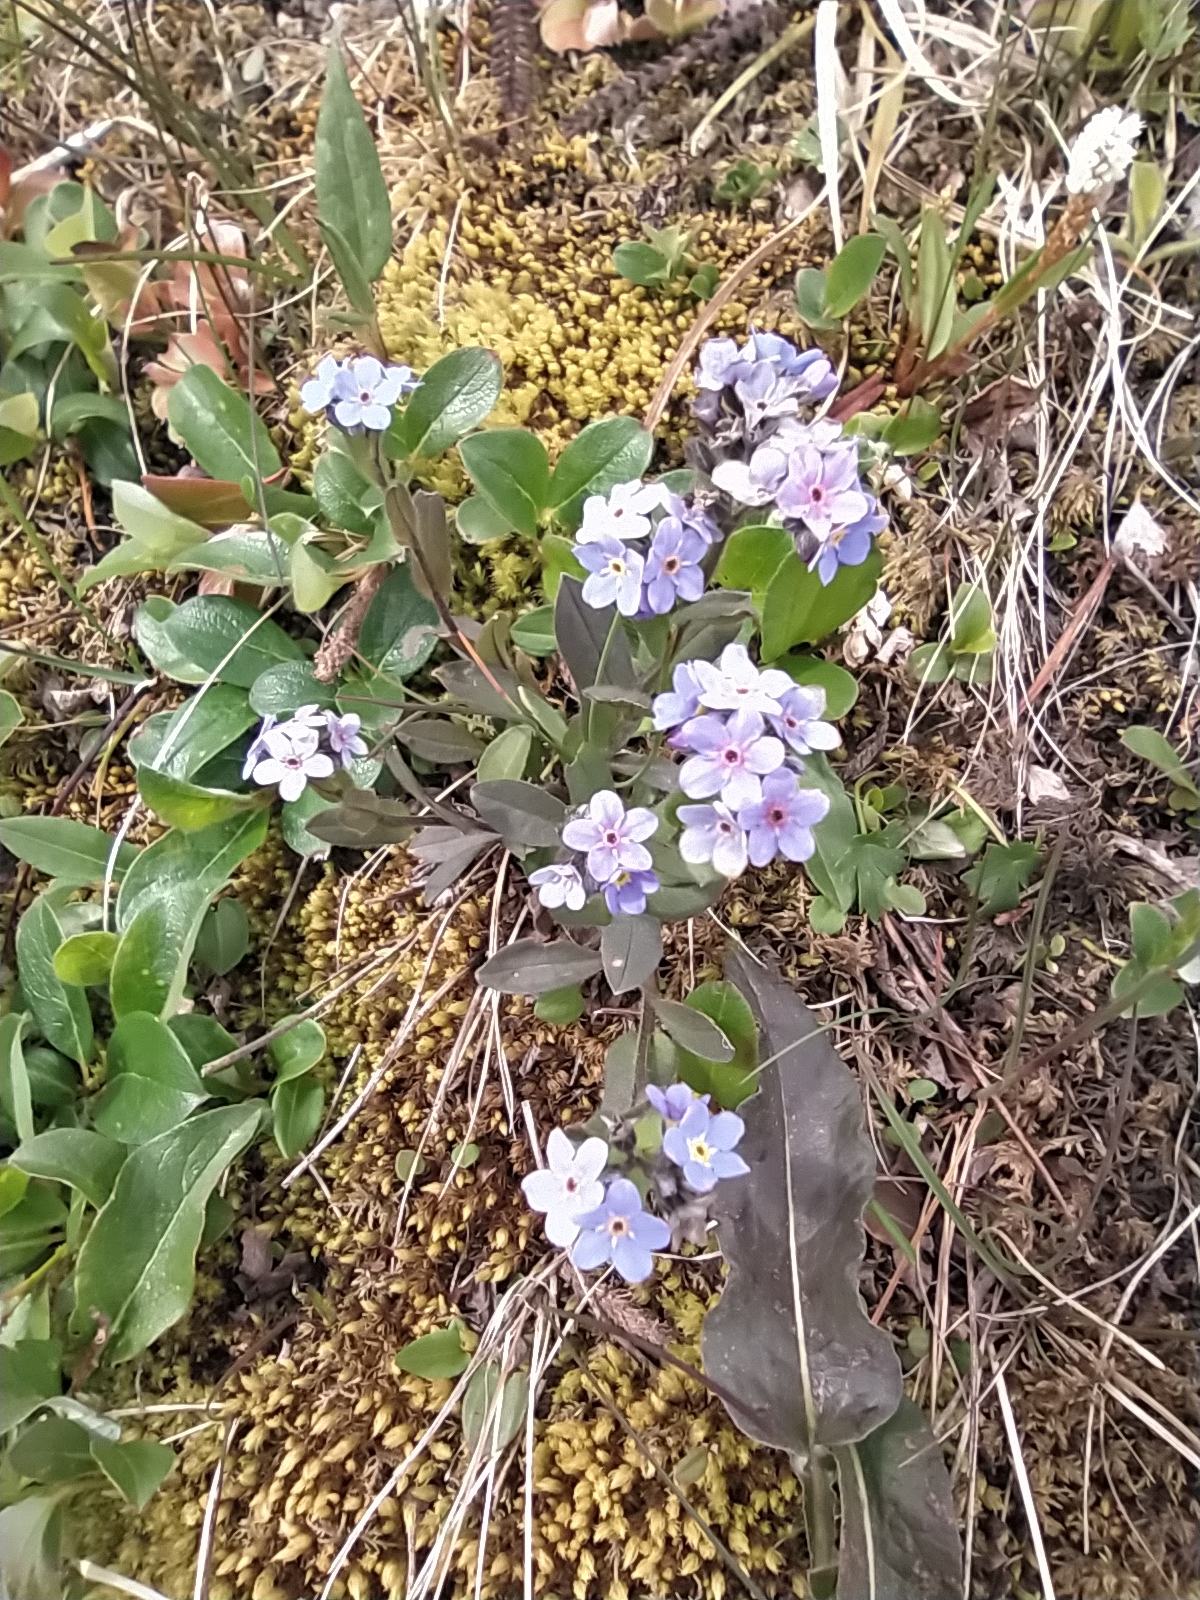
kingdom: Plantae
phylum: Tracheophyta
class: Magnoliopsida
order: Boraginales
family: Boraginaceae
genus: Myosotis
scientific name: Myosotis asiatica
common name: Asian forget-me-not
